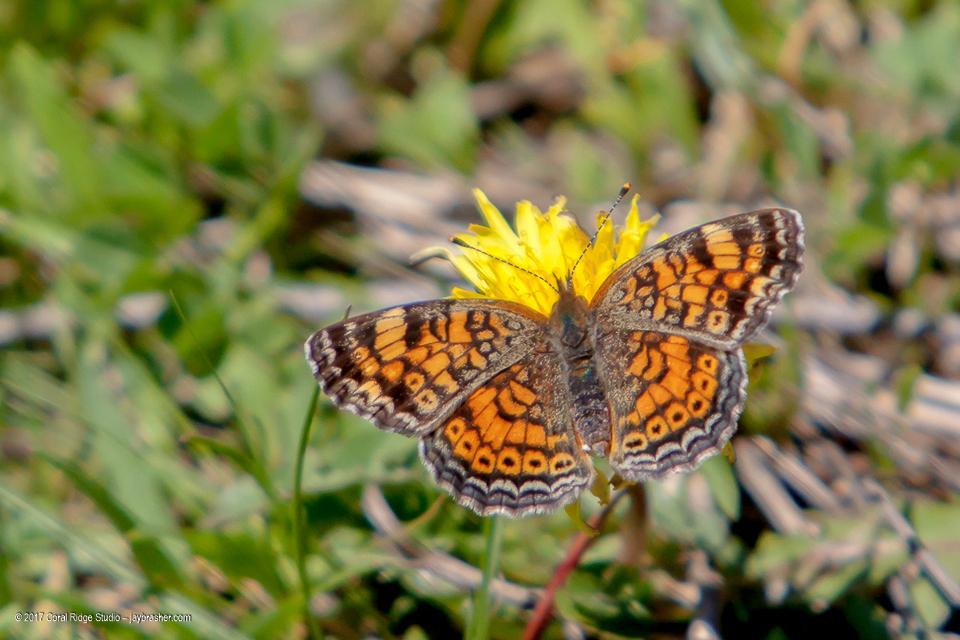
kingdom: Animalia
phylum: Arthropoda
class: Insecta
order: Lepidoptera
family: Nymphalidae
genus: Phyciodes
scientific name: Phyciodes tharos
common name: Pearl crescent
